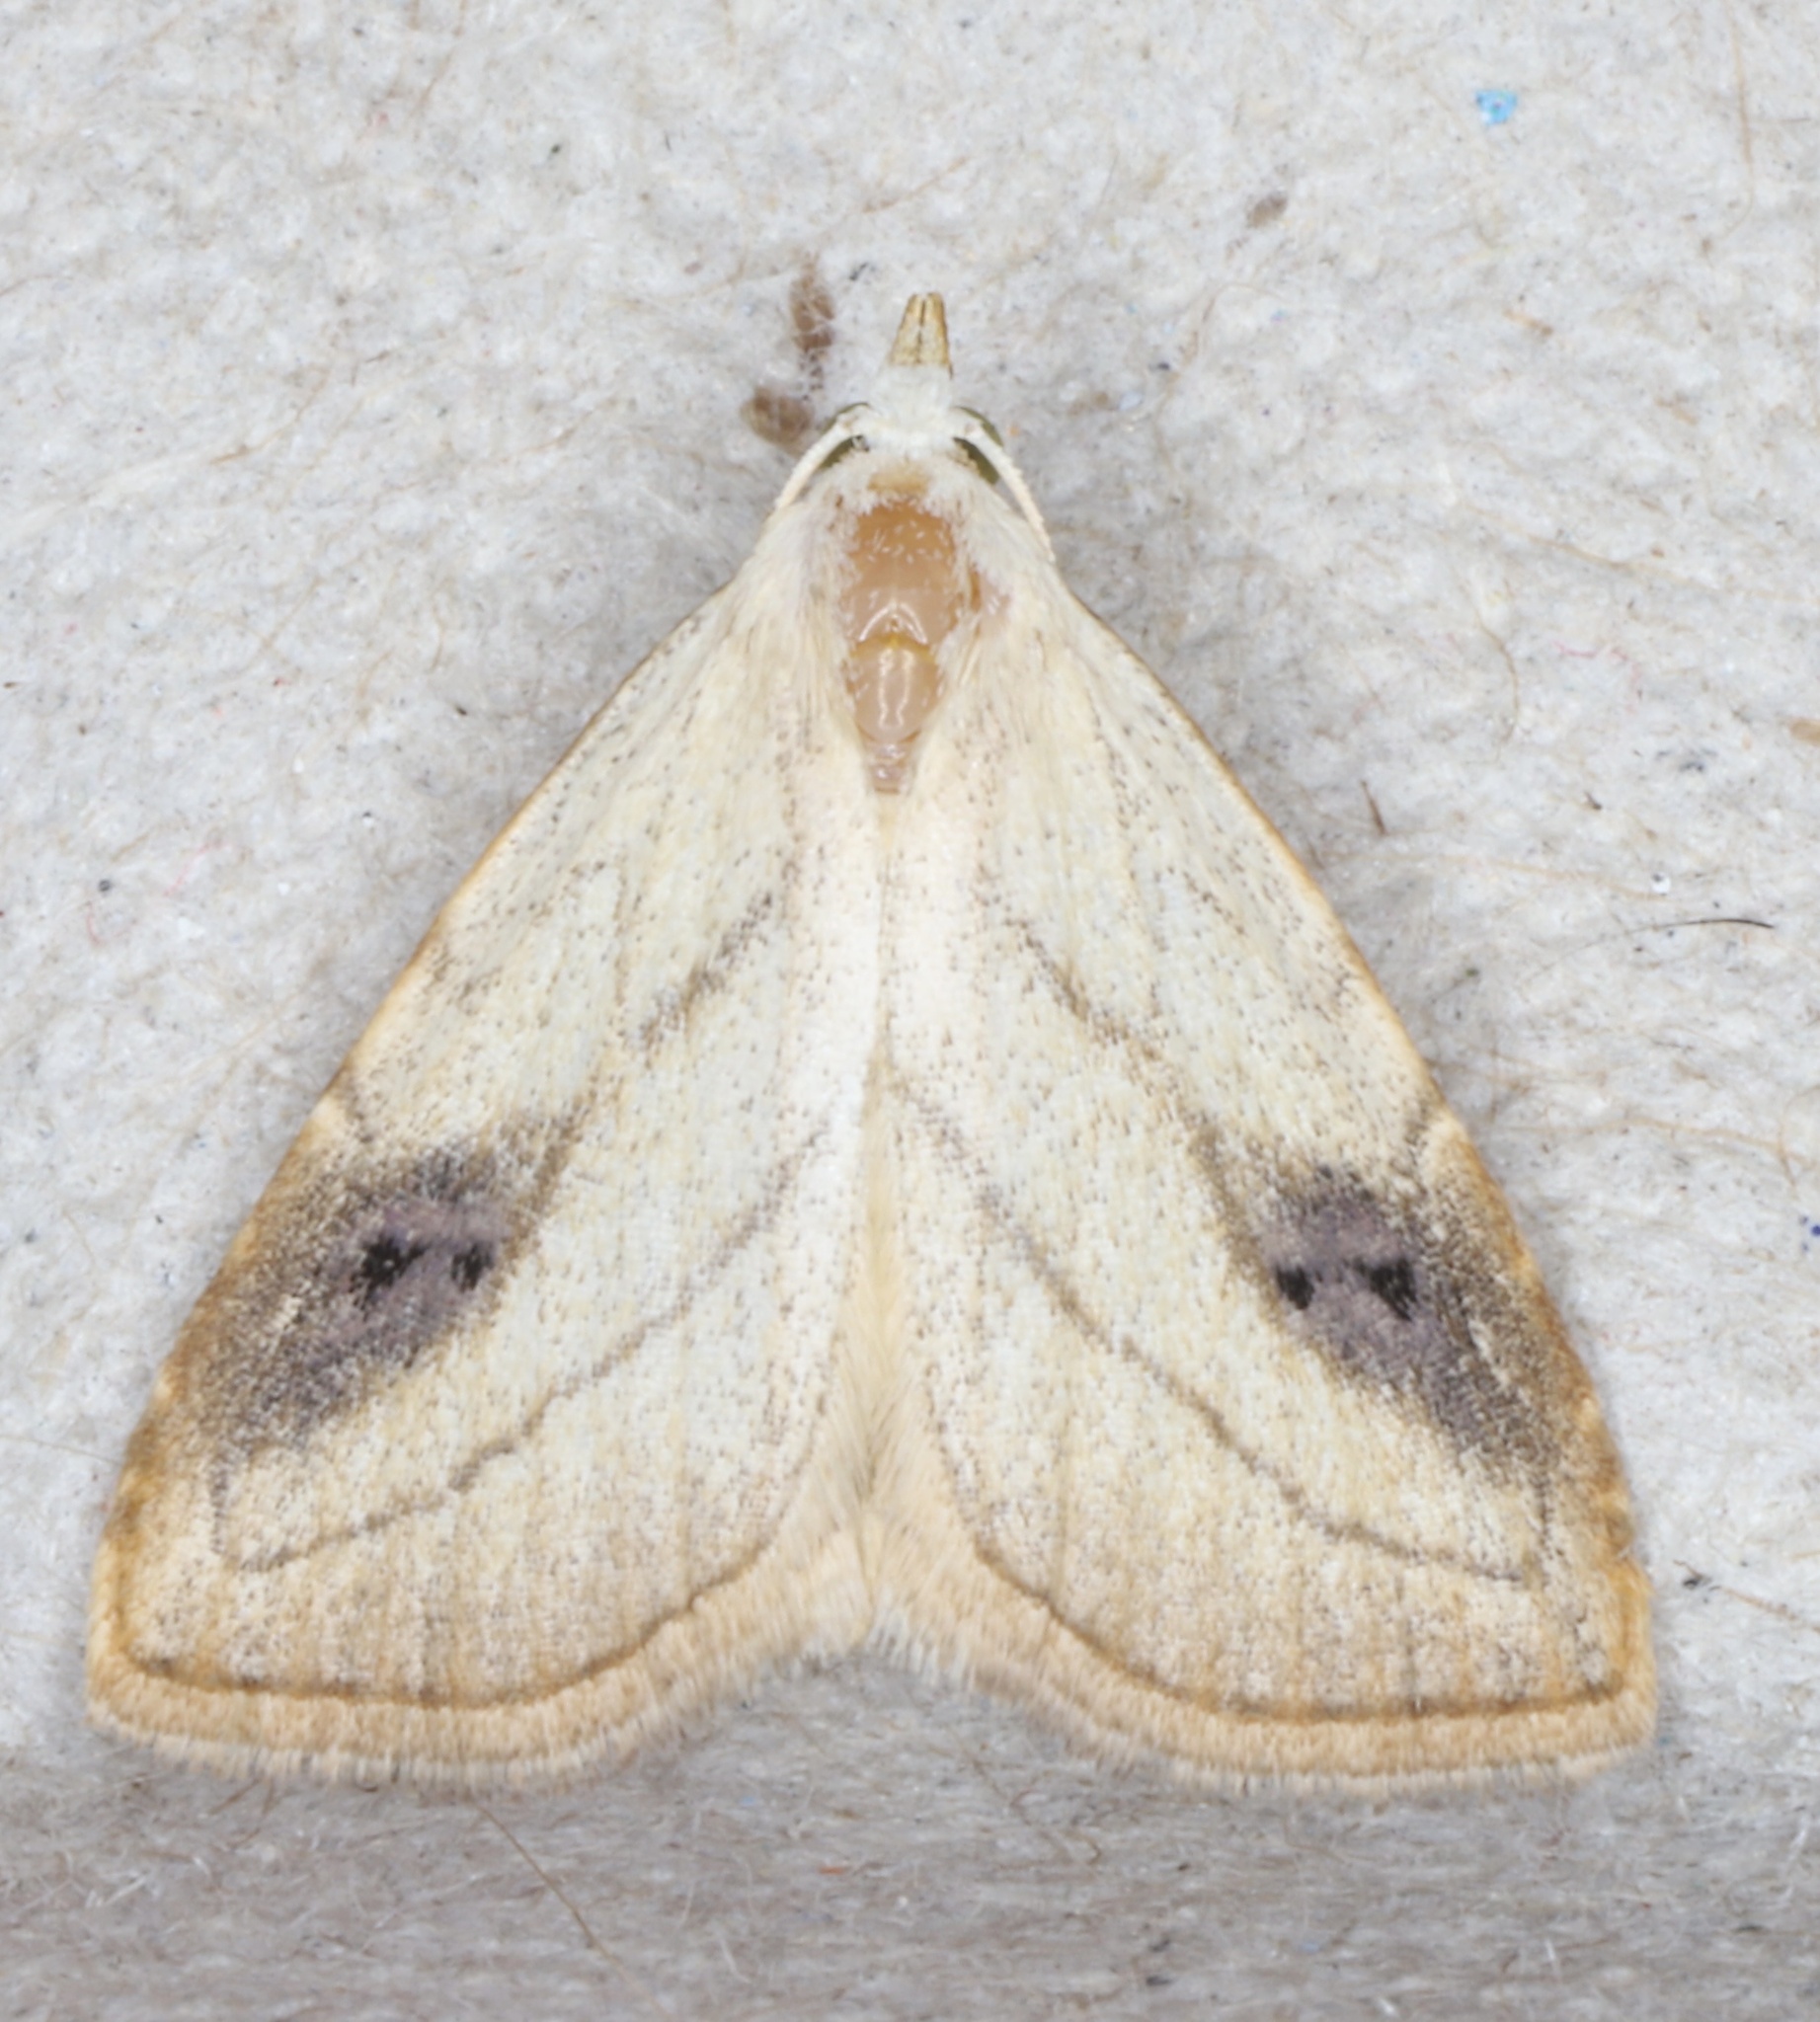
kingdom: Animalia
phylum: Arthropoda
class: Insecta
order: Lepidoptera
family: Erebidae
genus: Rivula
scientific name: Rivula propinqualis
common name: Spotted grass moth
